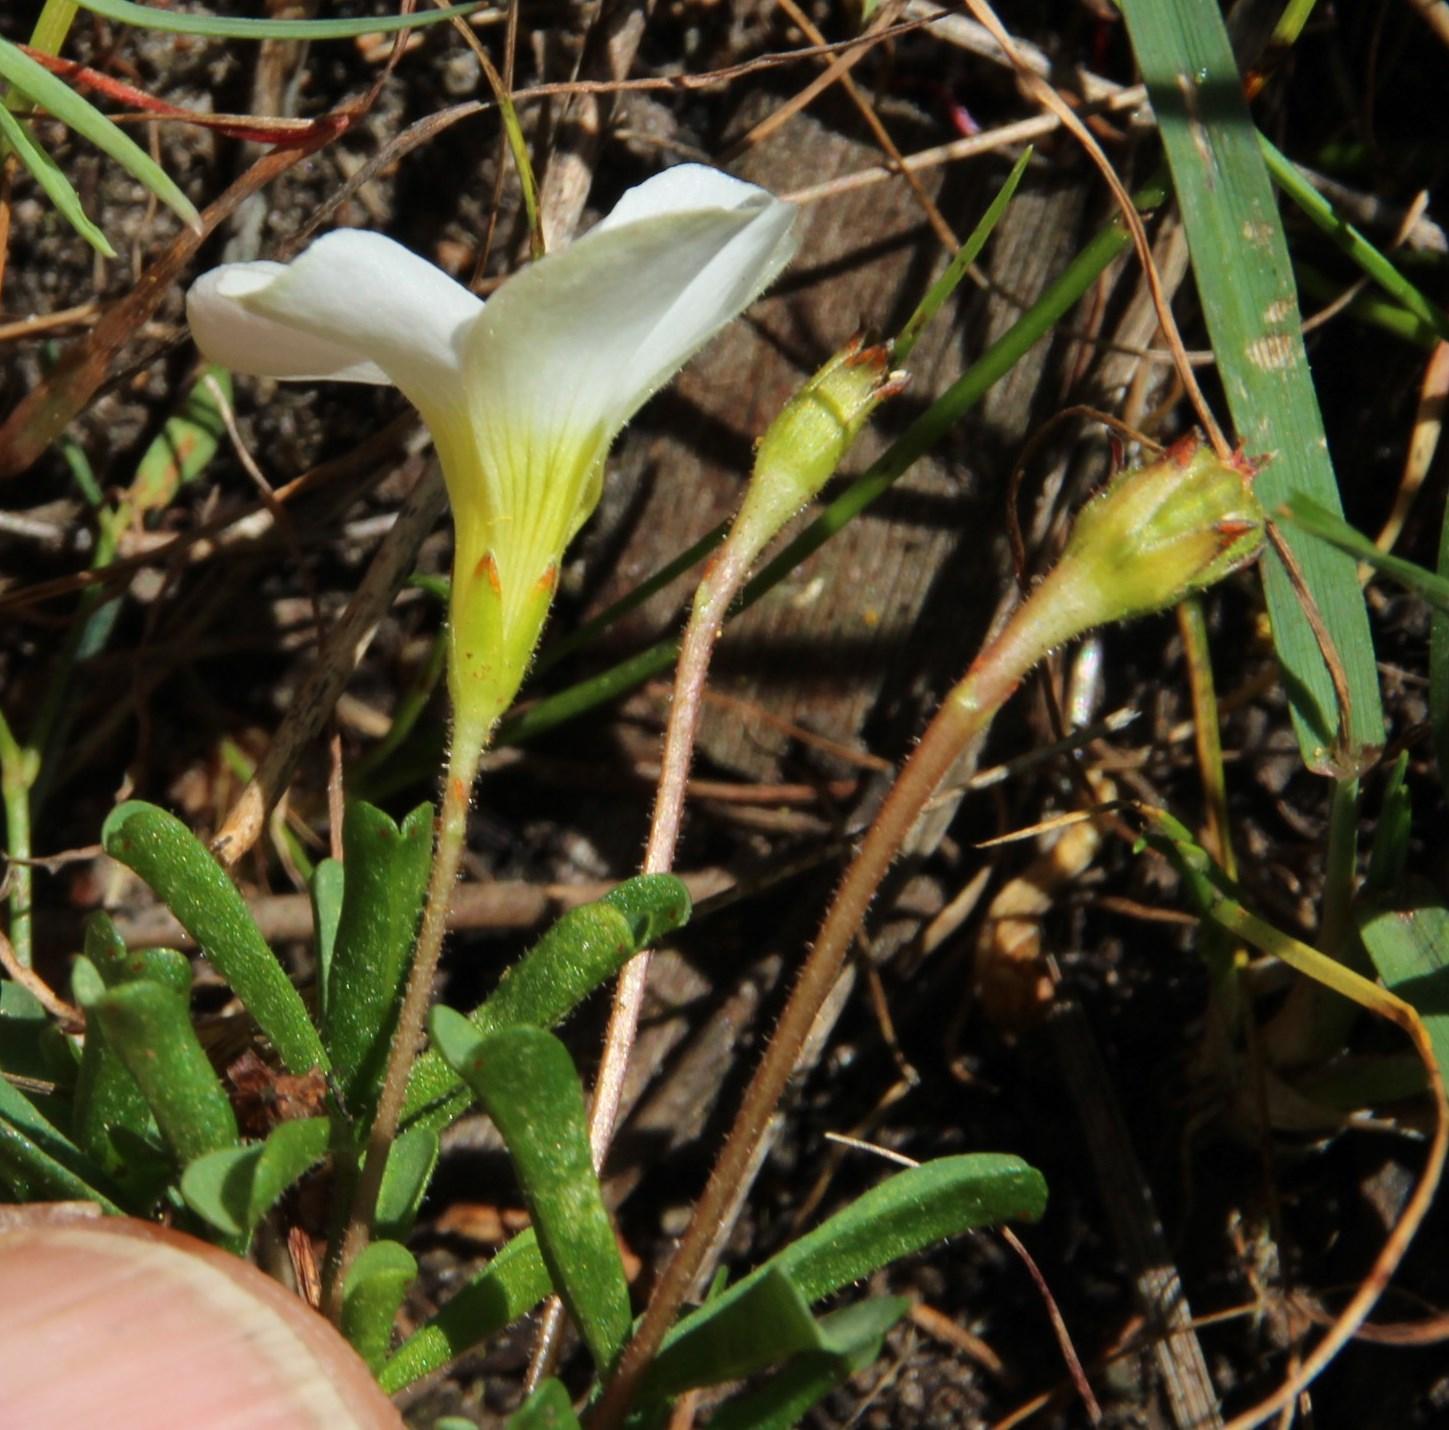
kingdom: Plantae
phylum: Tracheophyta
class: Magnoliopsida
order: Oxalidales
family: Oxalidaceae
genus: Oxalis
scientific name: Oxalis recticaulis
